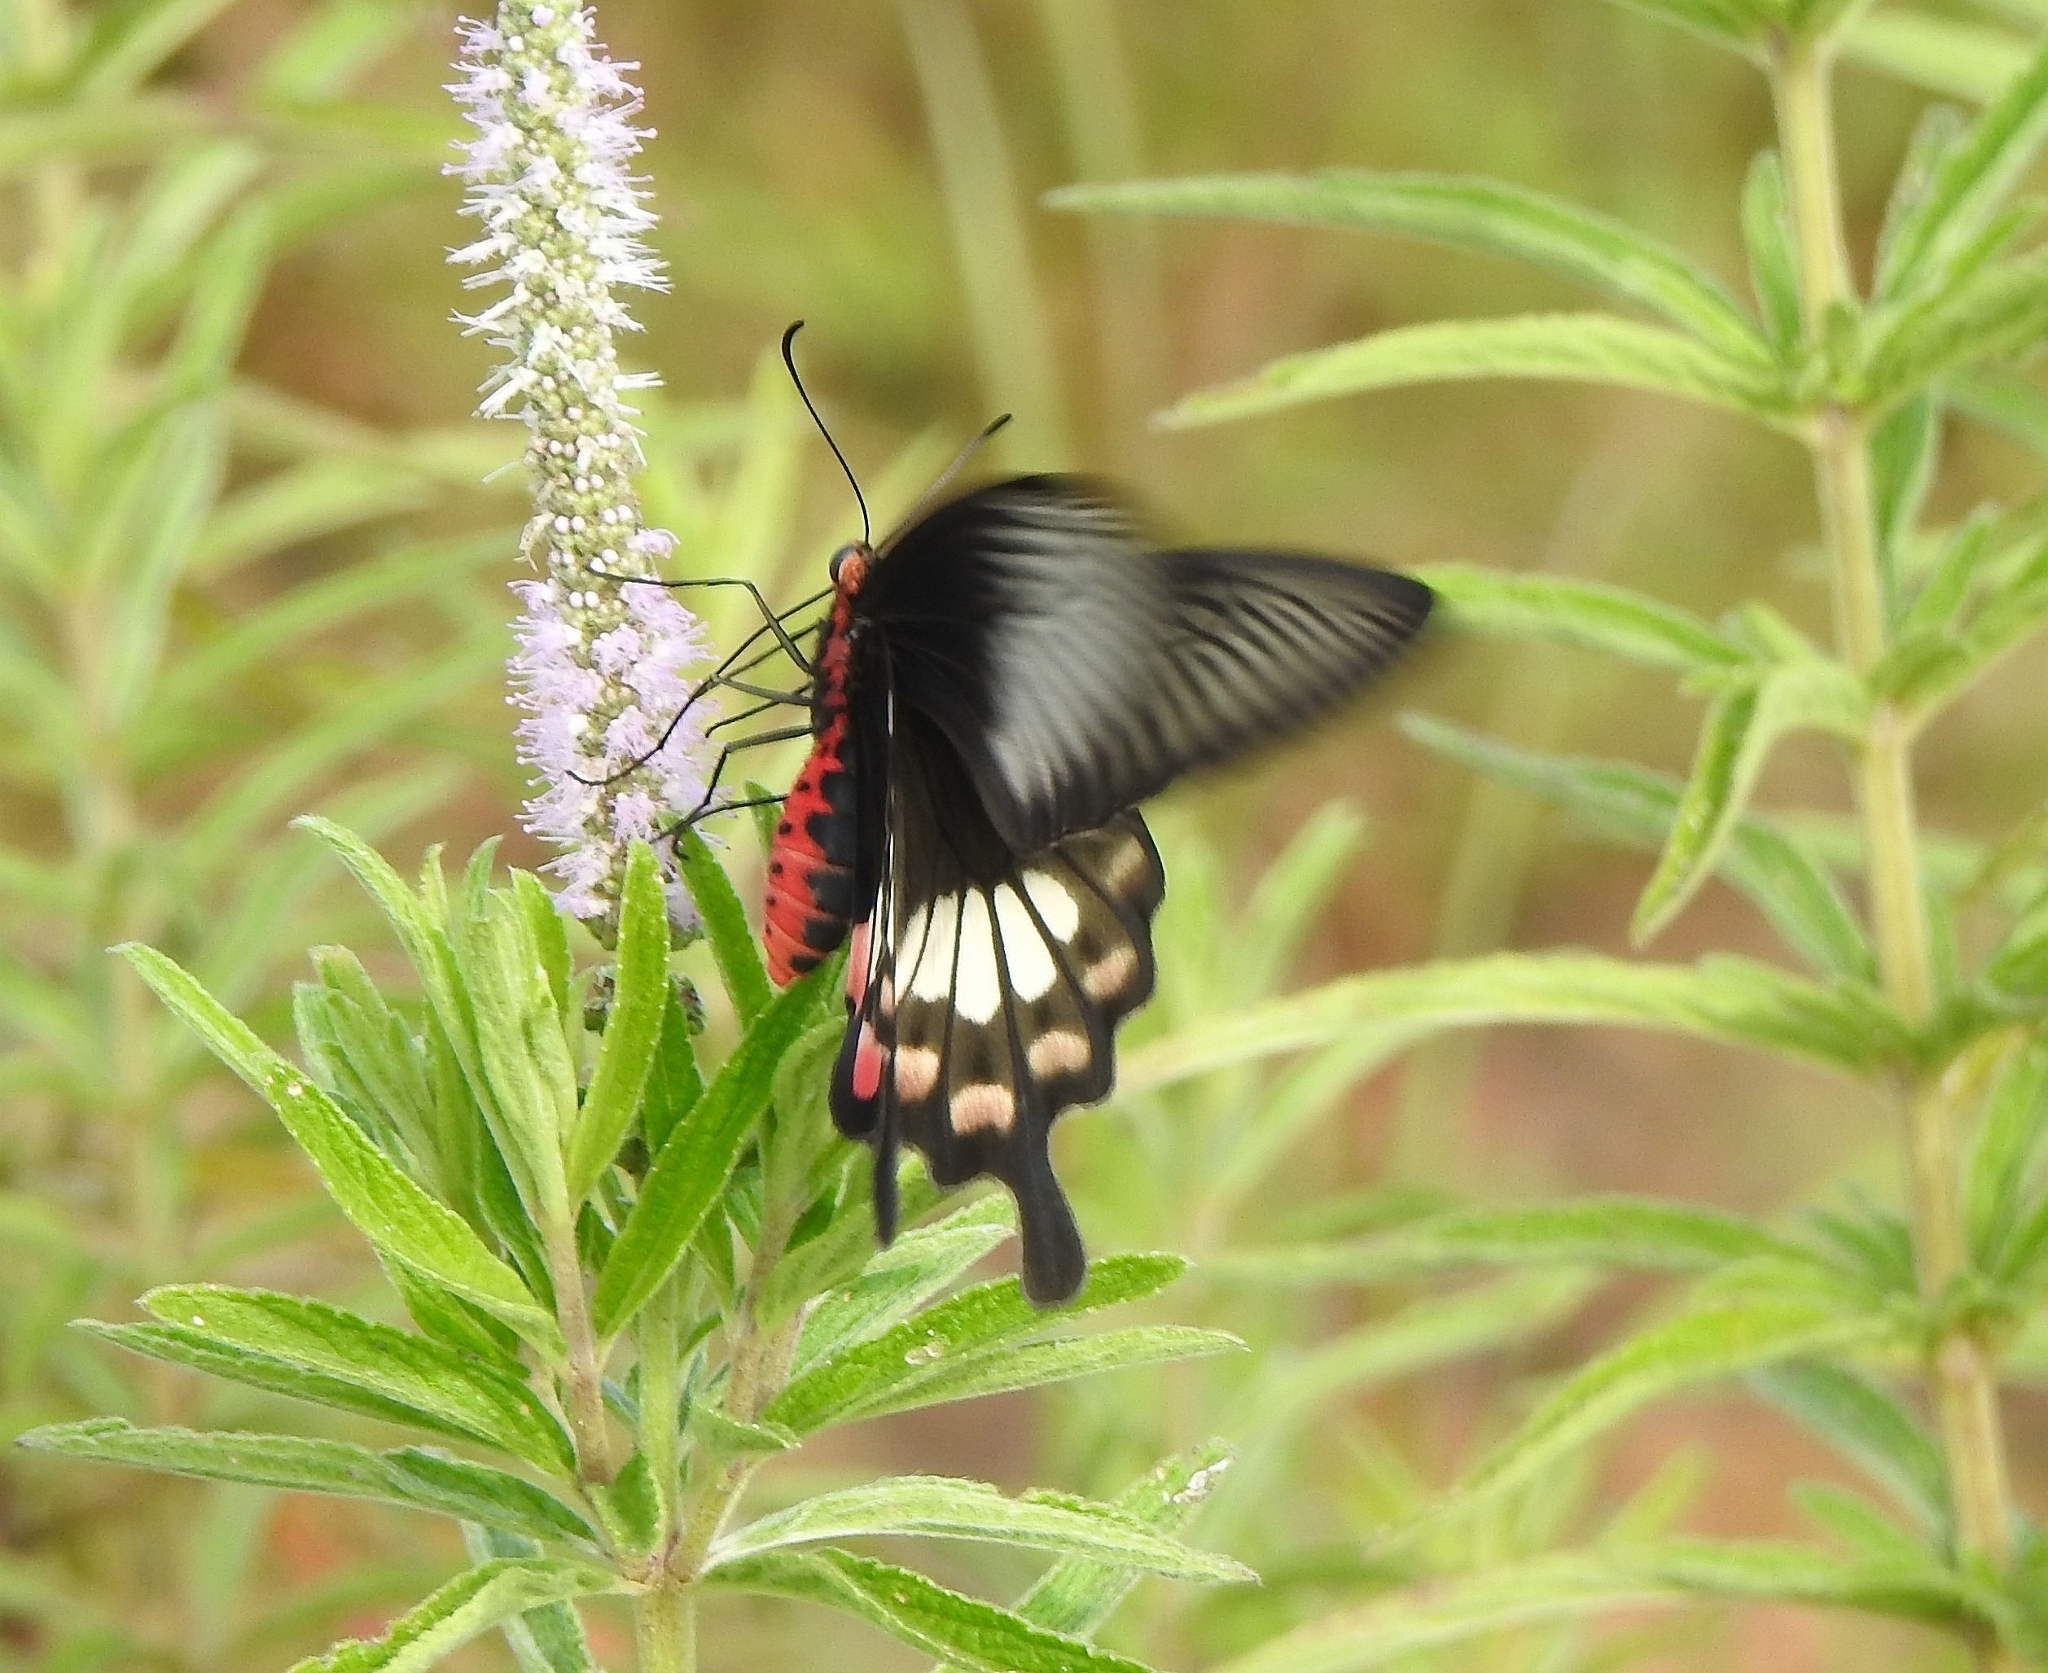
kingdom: Animalia
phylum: Arthropoda
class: Insecta
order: Lepidoptera
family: Papilionidae
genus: Pachliopta
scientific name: Pachliopta aristolochiae
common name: Common rose
